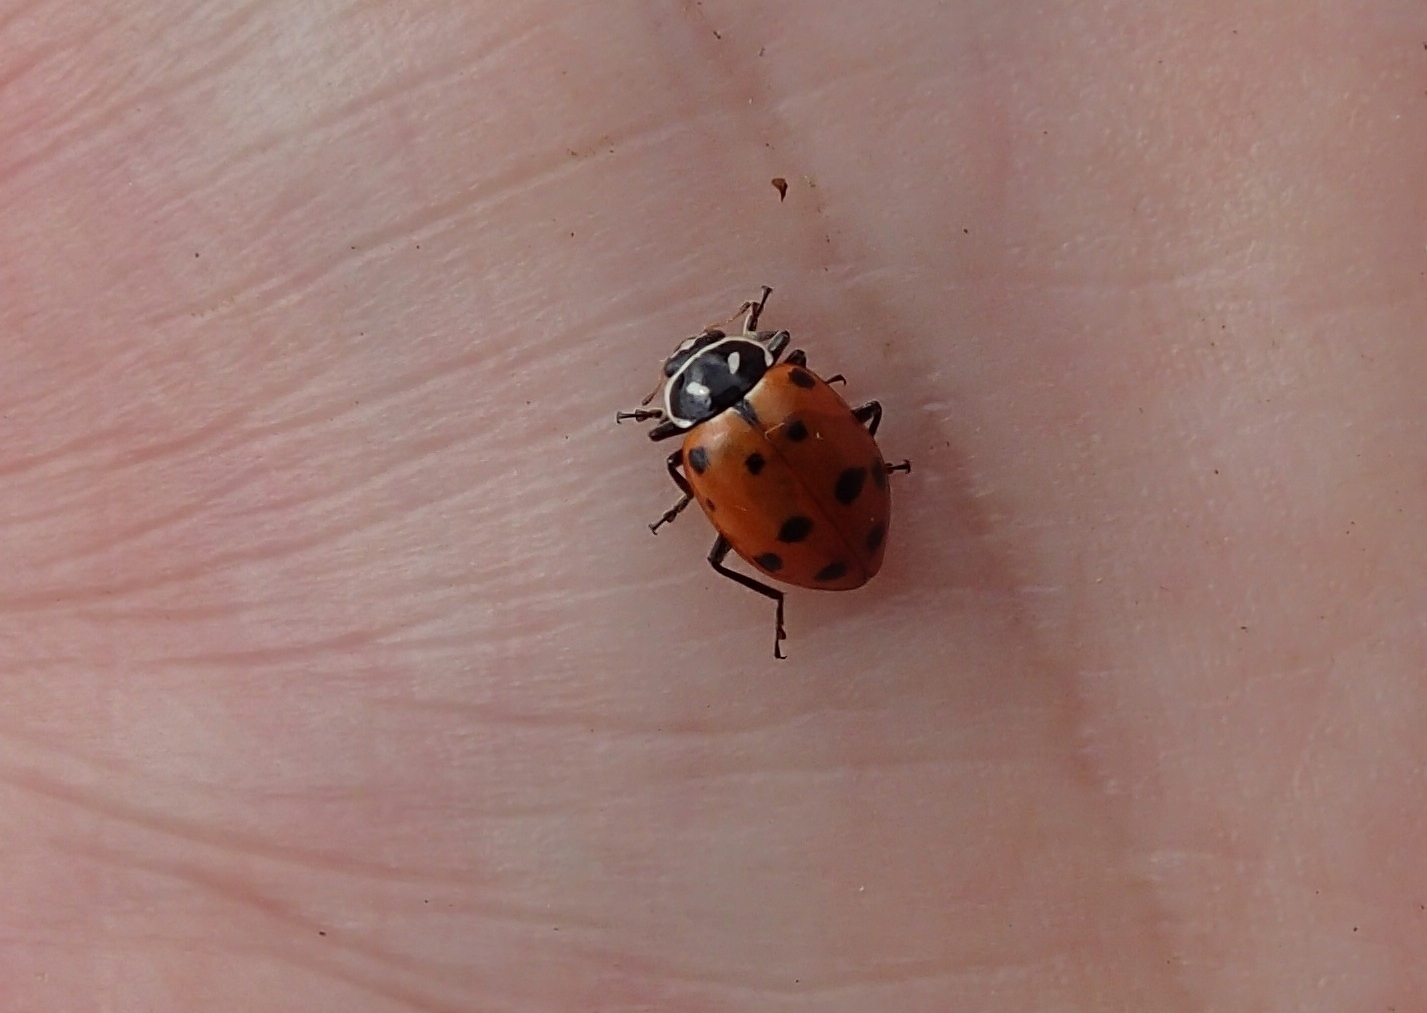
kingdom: Animalia
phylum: Arthropoda
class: Insecta
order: Coleoptera
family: Coccinellidae
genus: Hippodamia
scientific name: Hippodamia convergens
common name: Convergent lady beetle
